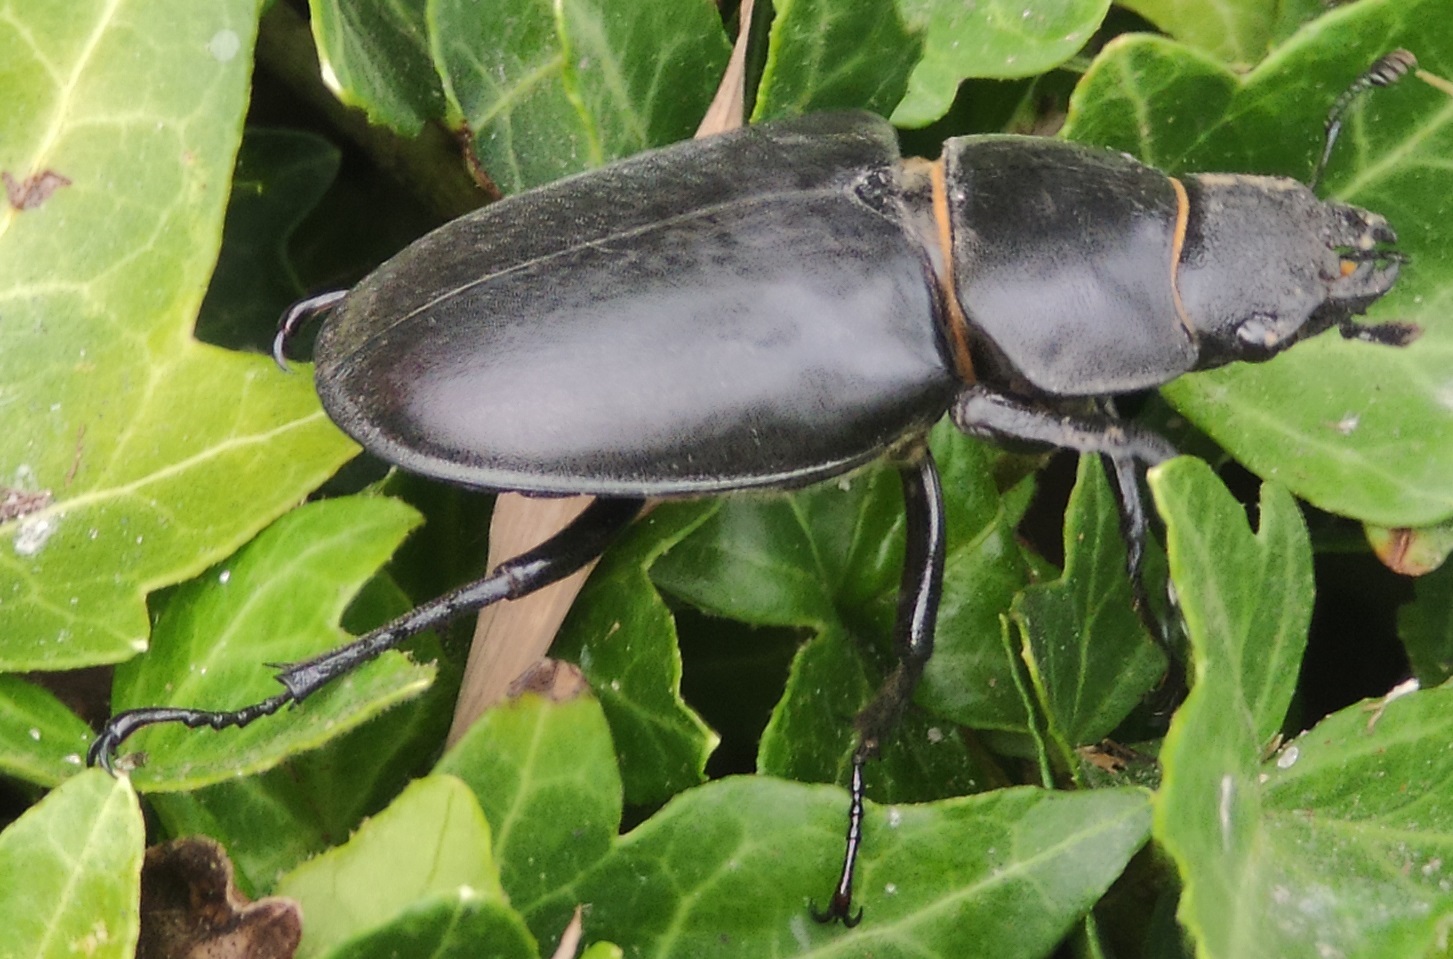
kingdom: Animalia
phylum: Arthropoda
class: Insecta
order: Coleoptera
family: Lucanidae
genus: Lucanus
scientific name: Lucanus cervus
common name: Stag beetle
